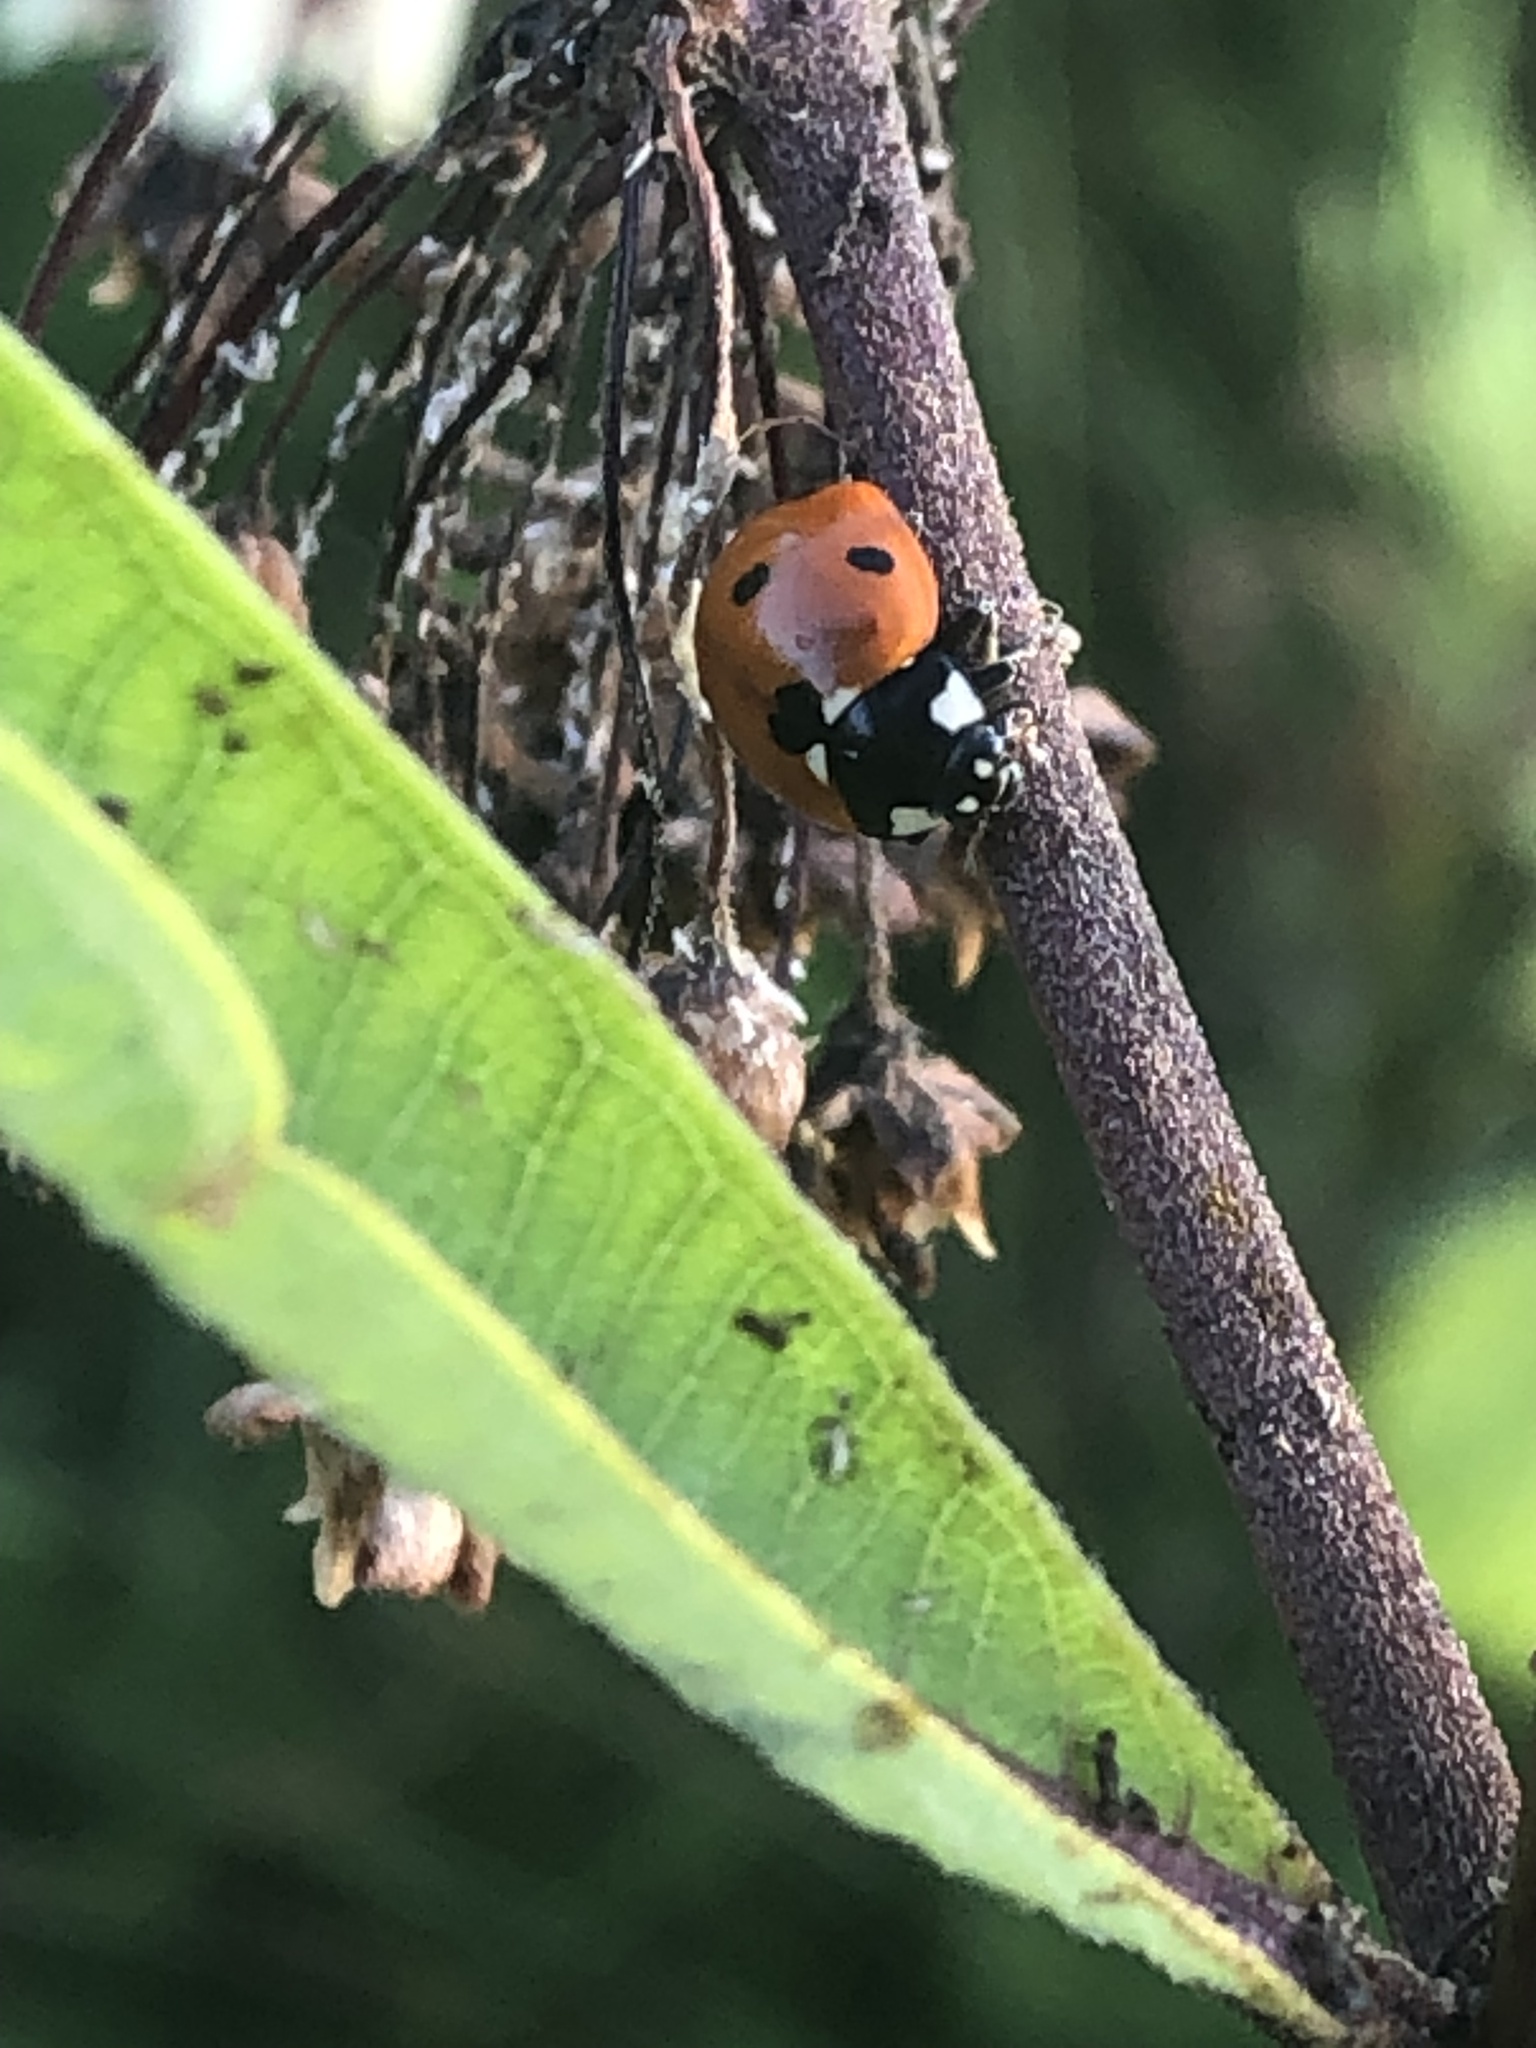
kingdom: Animalia
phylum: Arthropoda
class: Insecta
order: Coleoptera
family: Coccinellidae
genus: Coccinella
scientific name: Coccinella septempunctata
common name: Sevenspotted lady beetle
